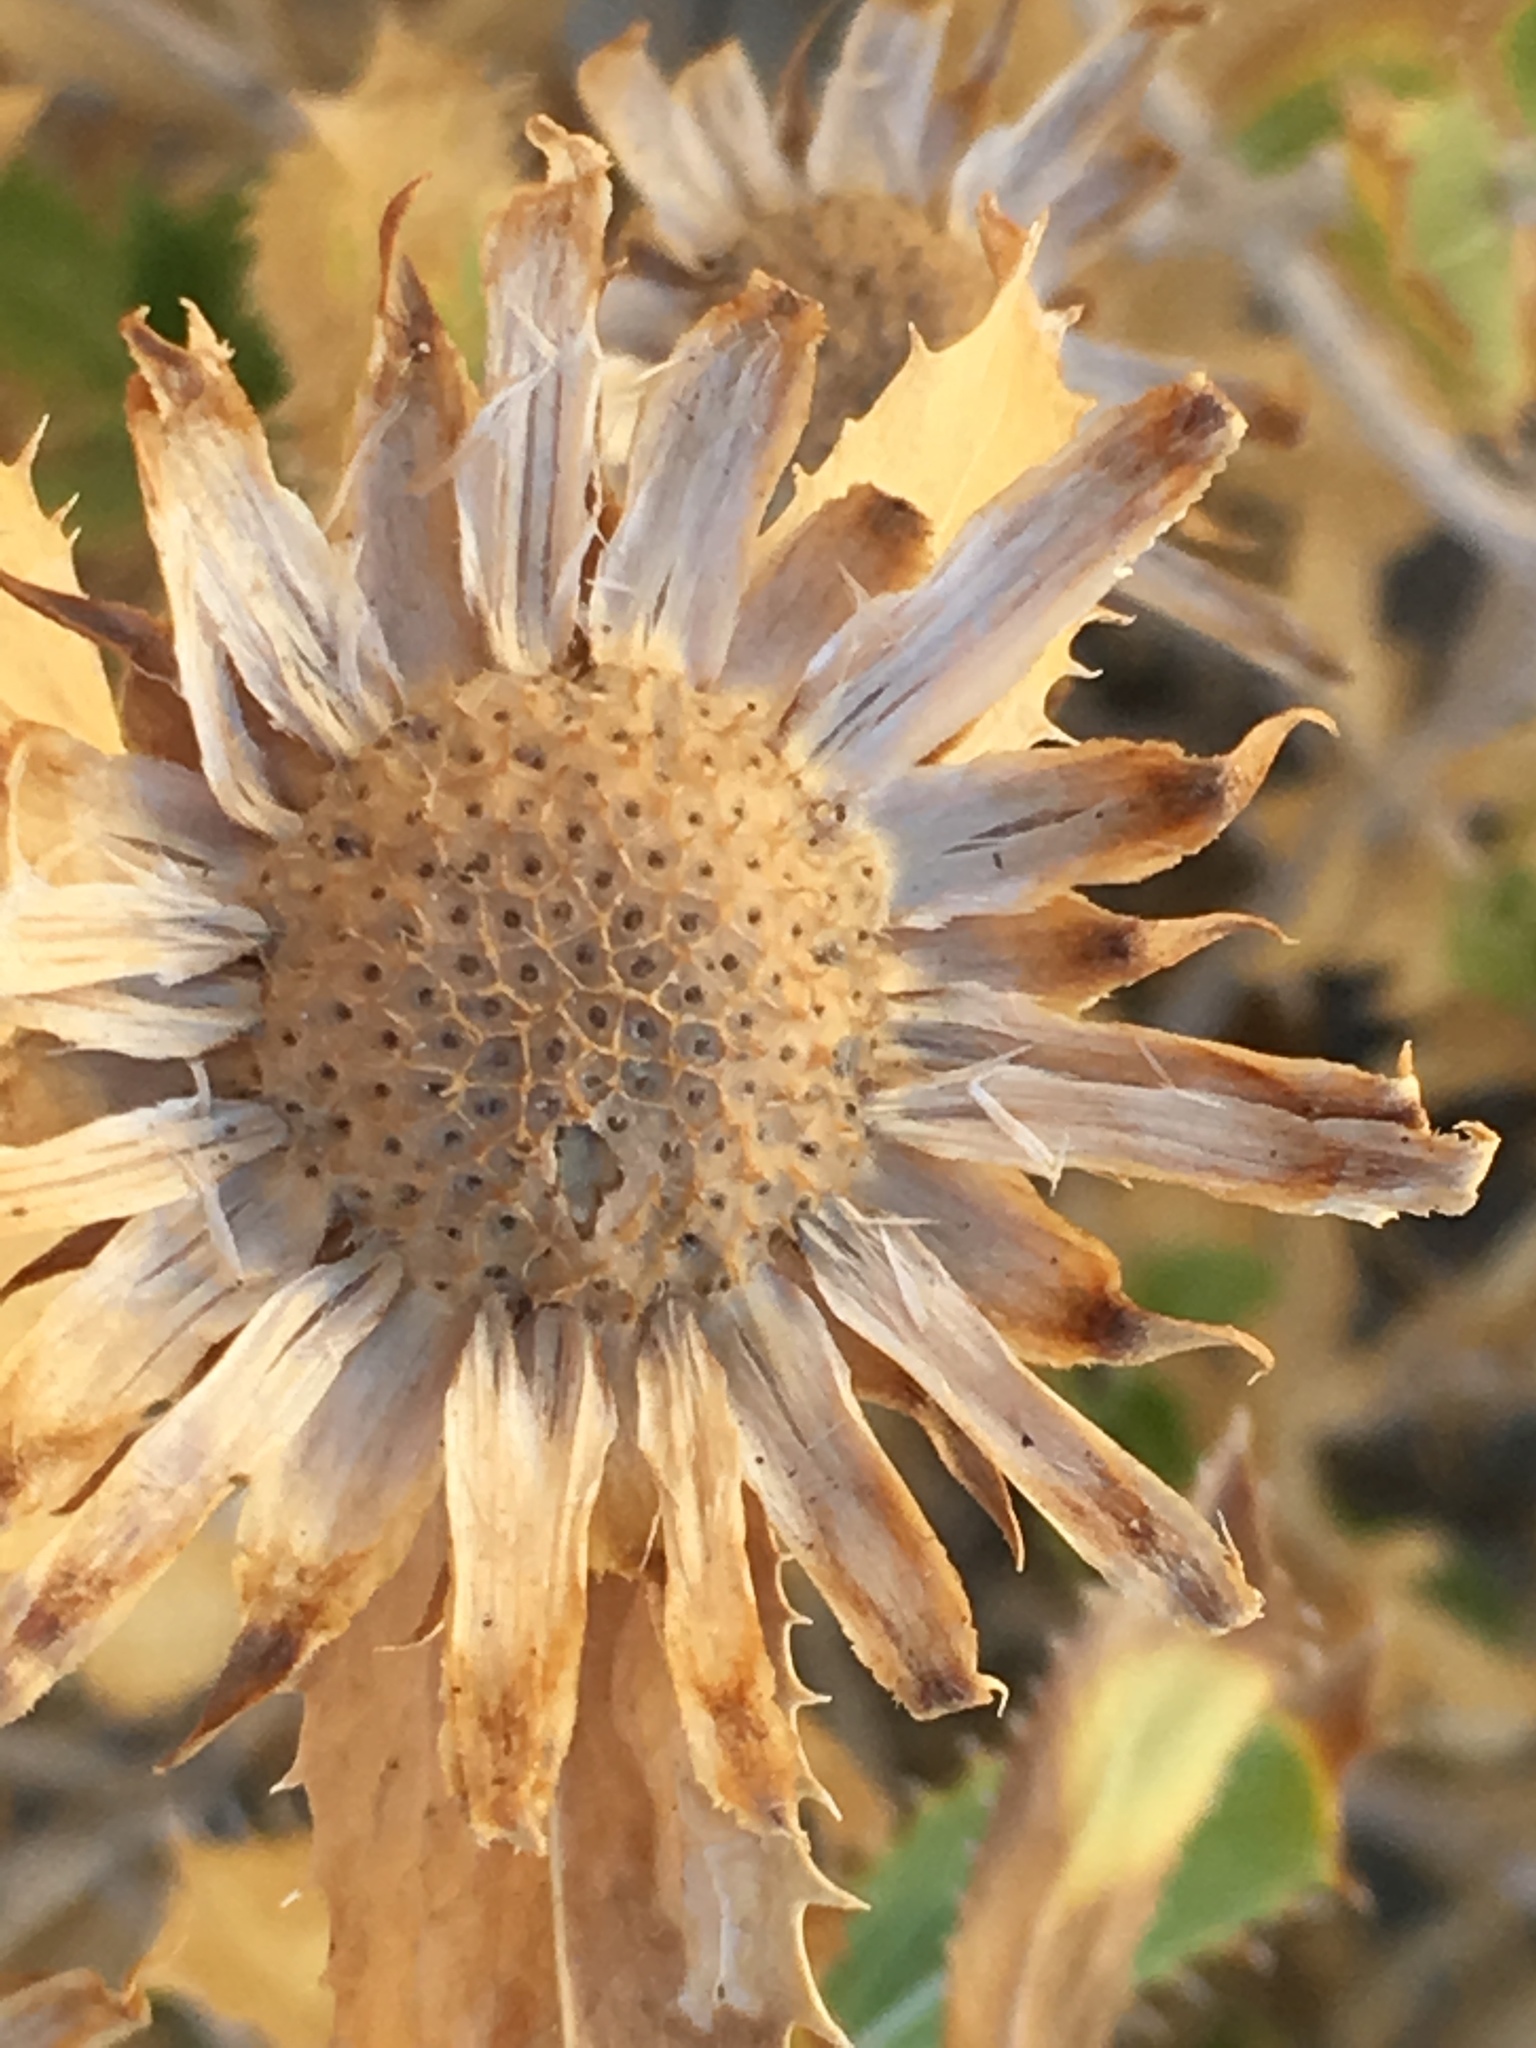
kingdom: Plantae
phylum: Tracheophyta
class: Magnoliopsida
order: Asterales
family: Asteraceae
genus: Xylorhiza
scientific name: Xylorhiza orcuttii
